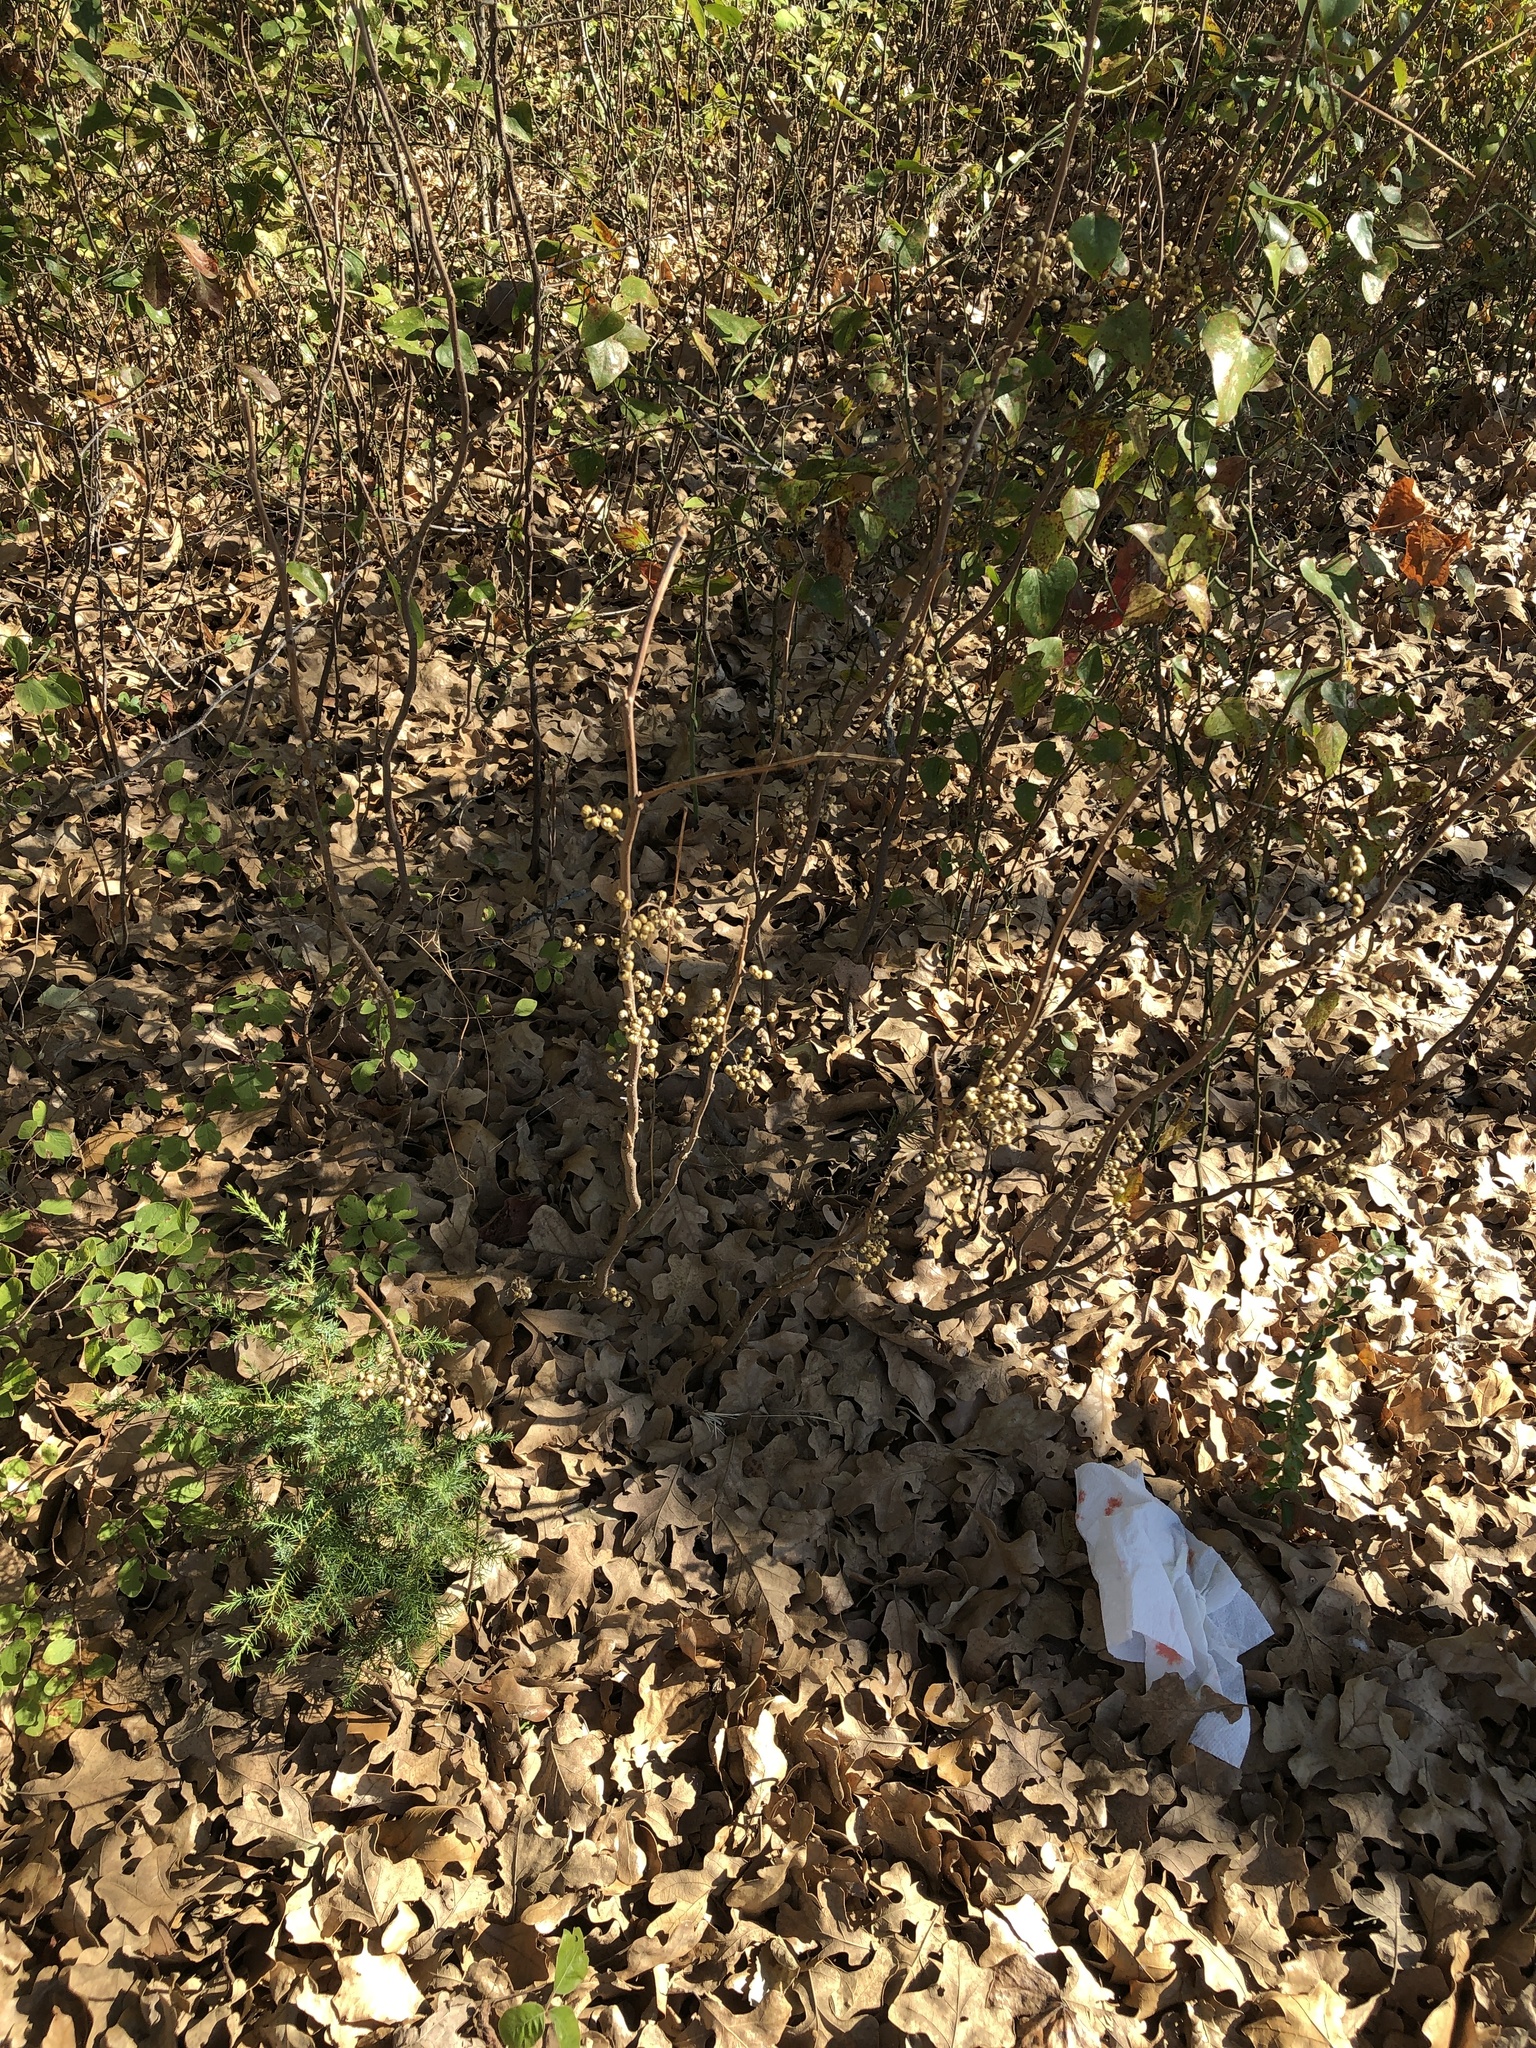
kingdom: Plantae
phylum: Tracheophyta
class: Magnoliopsida
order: Sapindales
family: Anacardiaceae
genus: Toxicodendron
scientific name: Toxicodendron radicans
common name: Poison ivy
